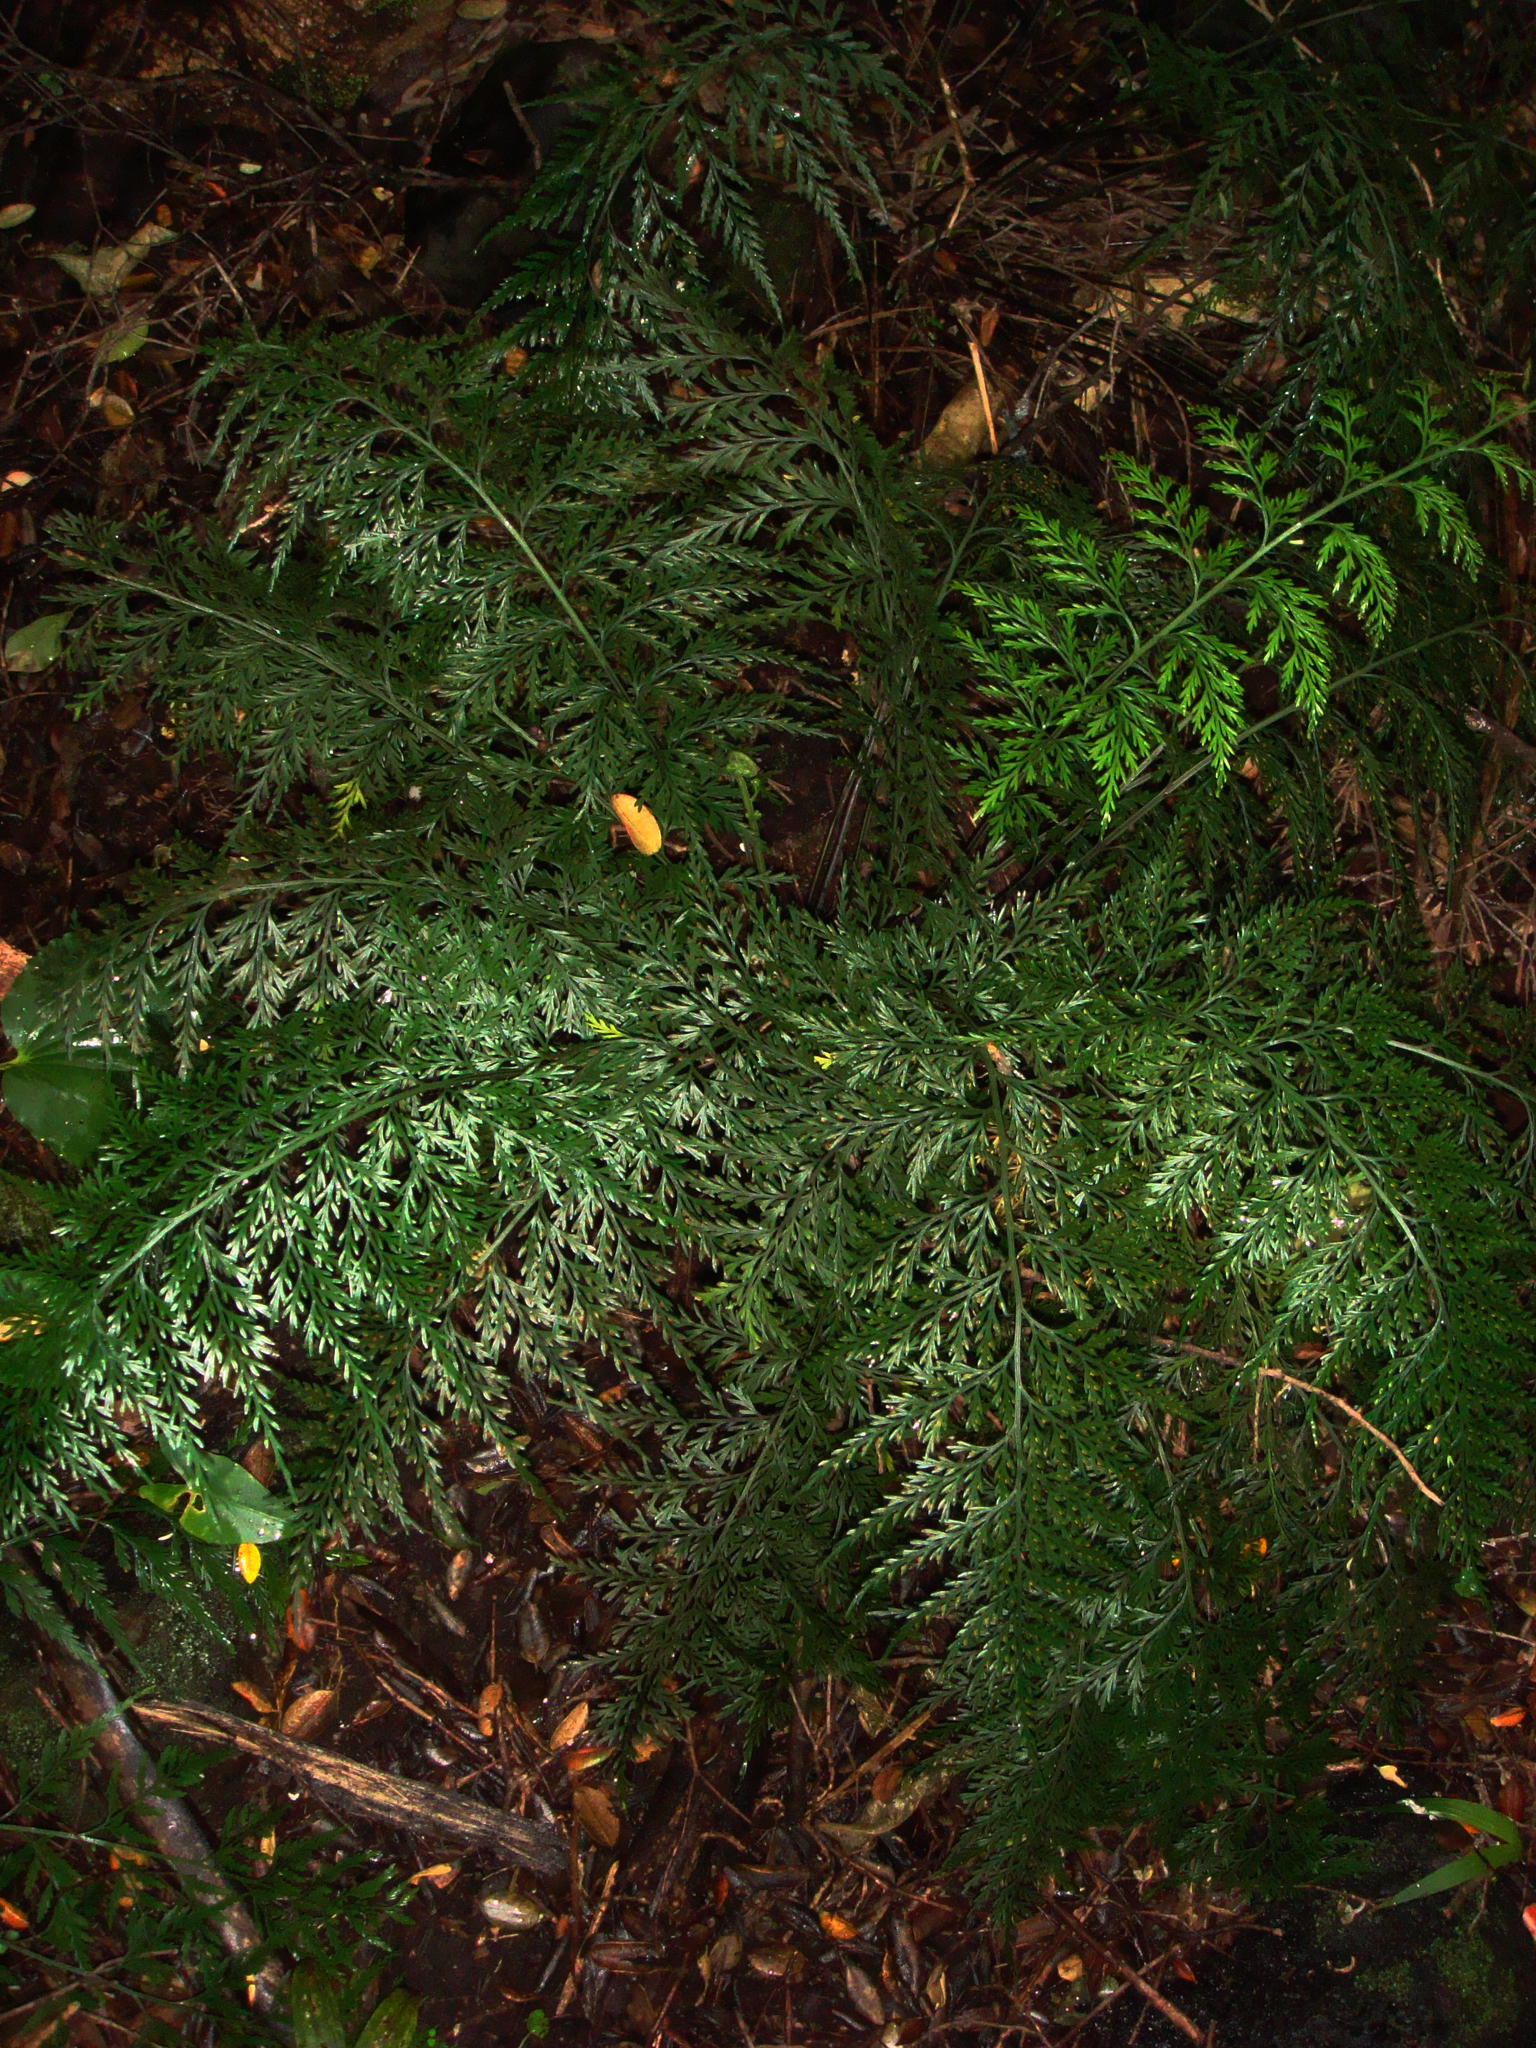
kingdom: Plantae
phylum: Tracheophyta
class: Polypodiopsida
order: Polypodiales
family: Aspleniaceae
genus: Asplenium
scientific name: Asplenium shuttleworthianum
